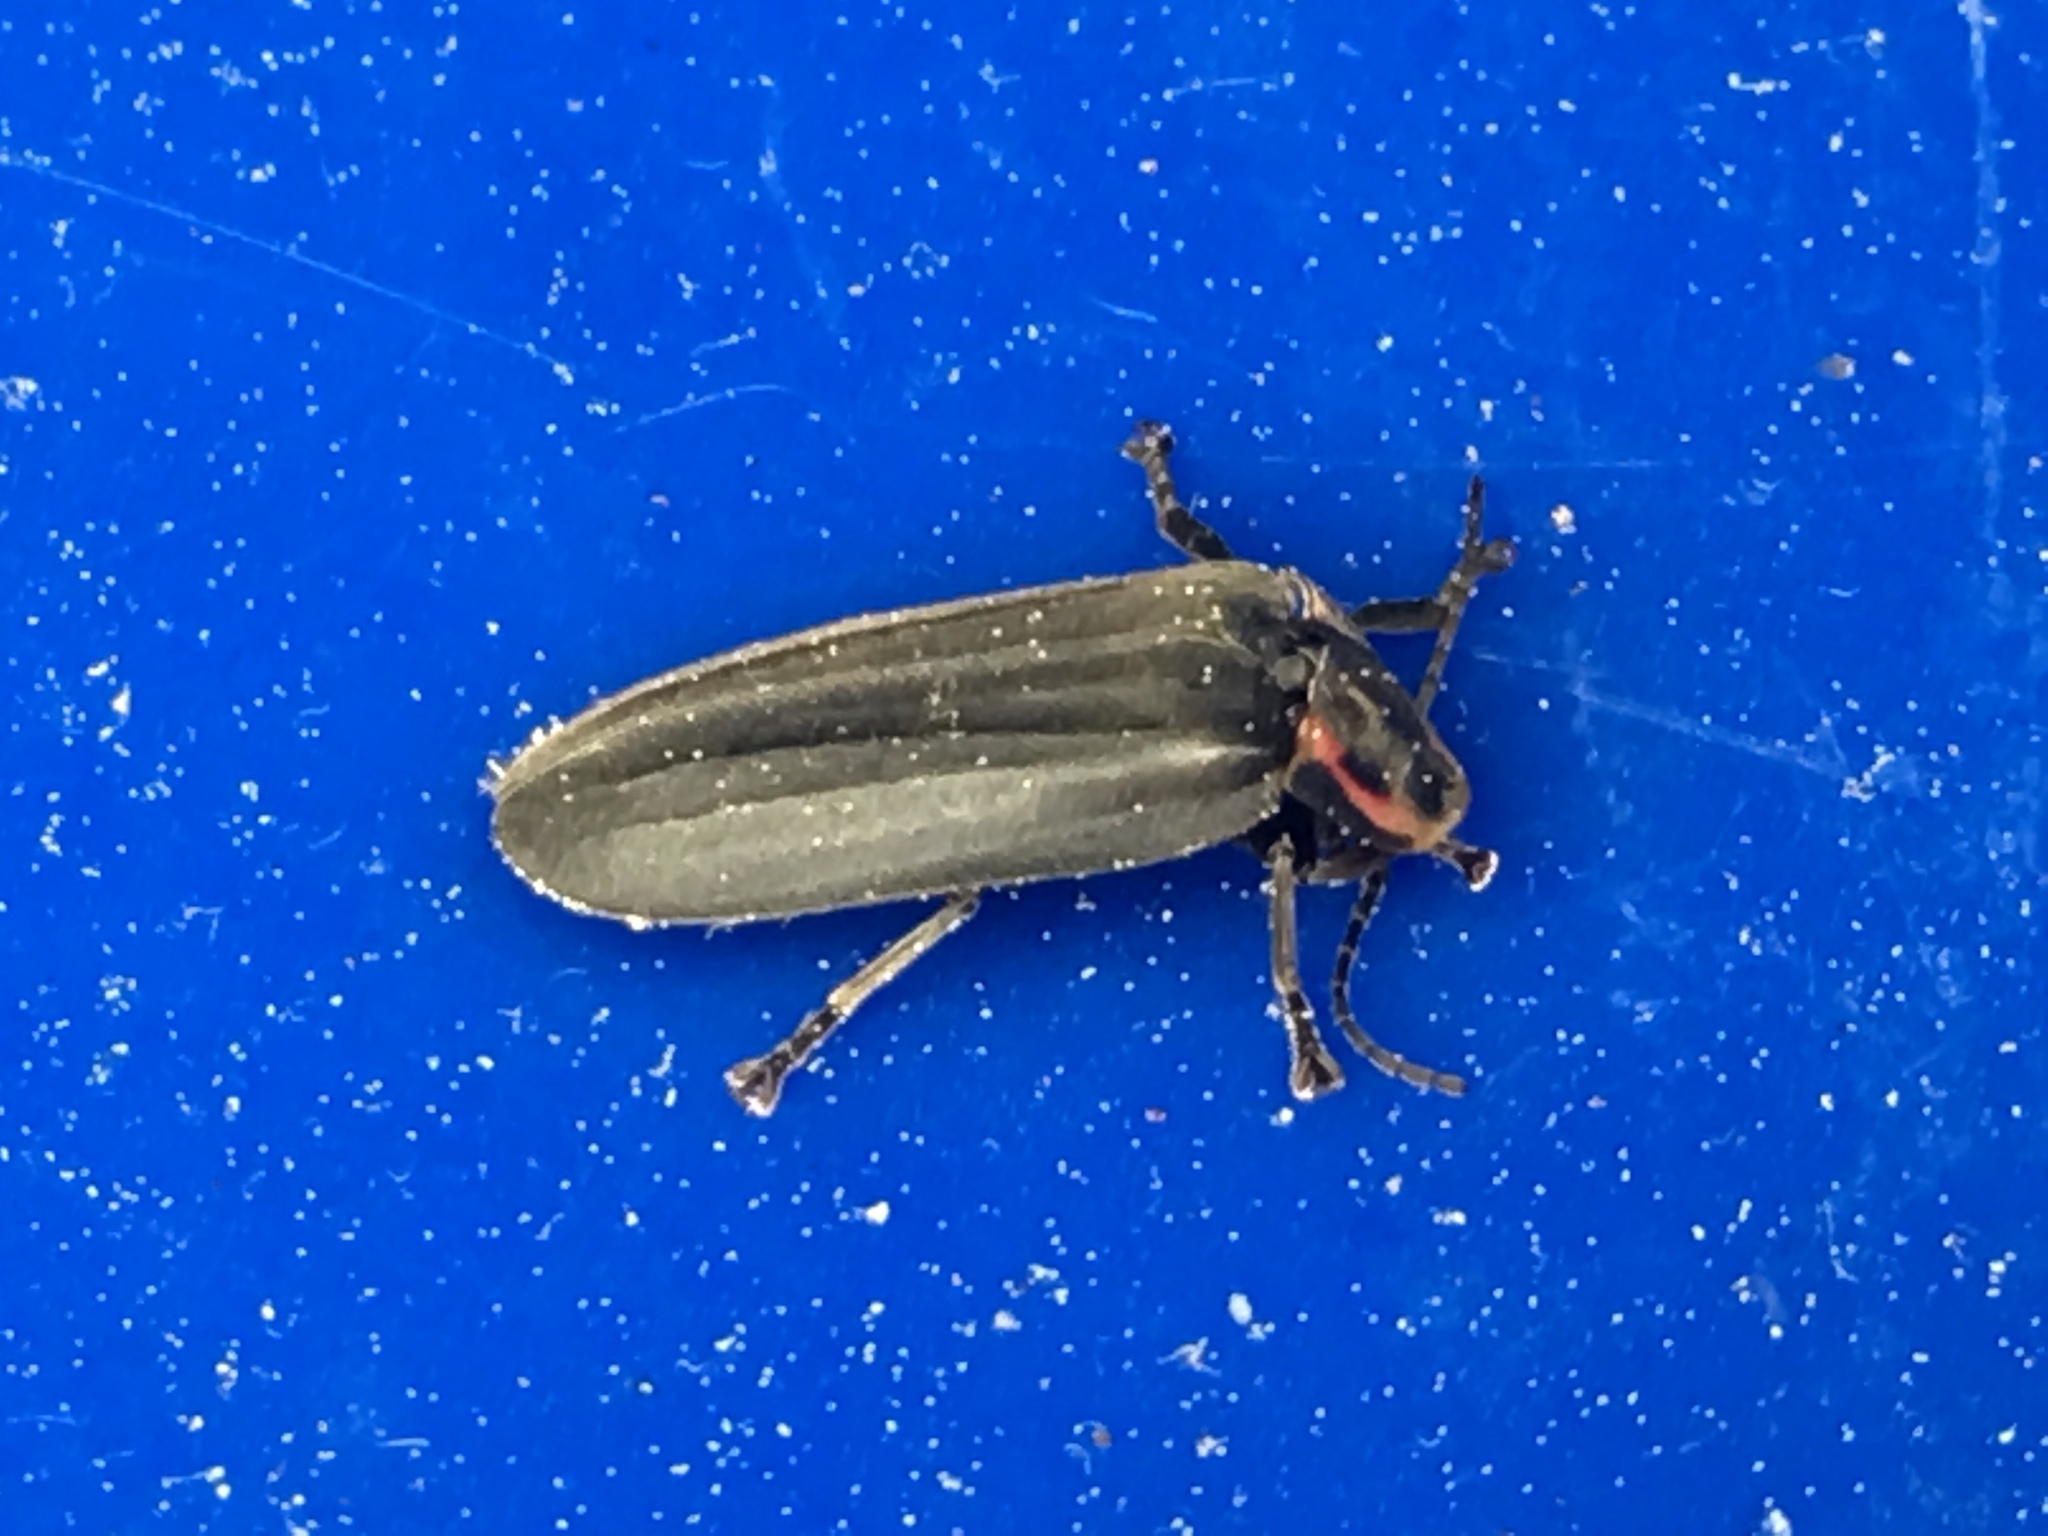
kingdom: Animalia
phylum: Arthropoda
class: Insecta
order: Coleoptera
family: Lampyridae
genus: Photinus
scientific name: Photinus corrusca
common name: Winter firefly
